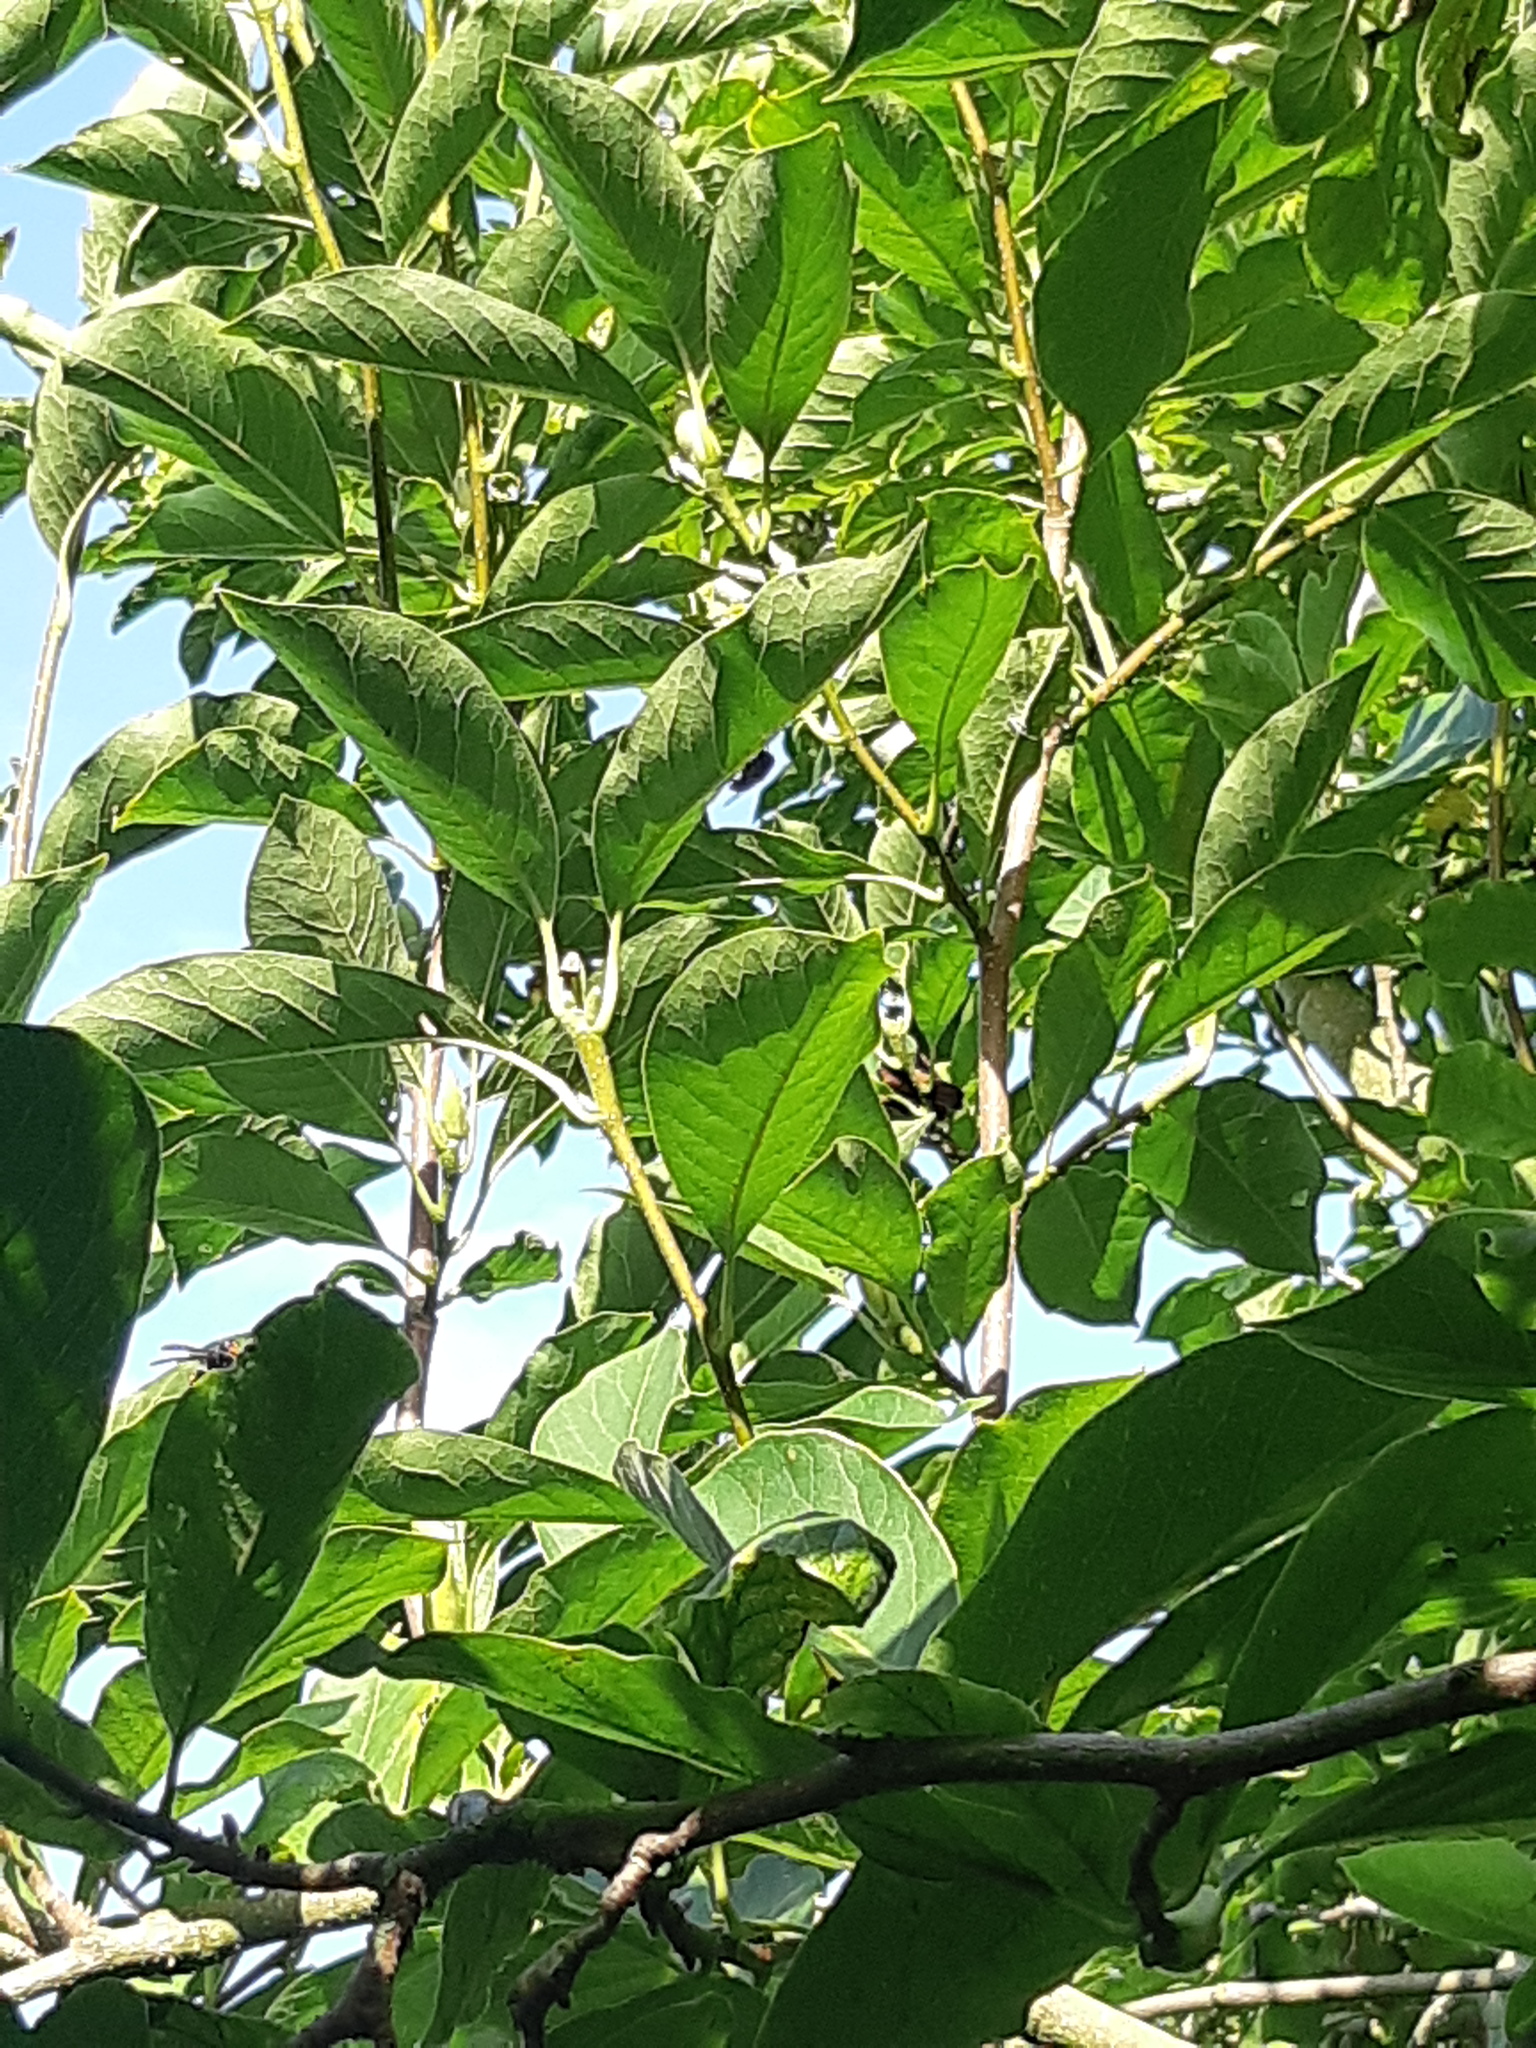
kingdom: Animalia
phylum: Arthropoda
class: Insecta
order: Hymenoptera
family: Vespidae
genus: Vespa
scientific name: Vespa velutina
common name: Asian hornet
